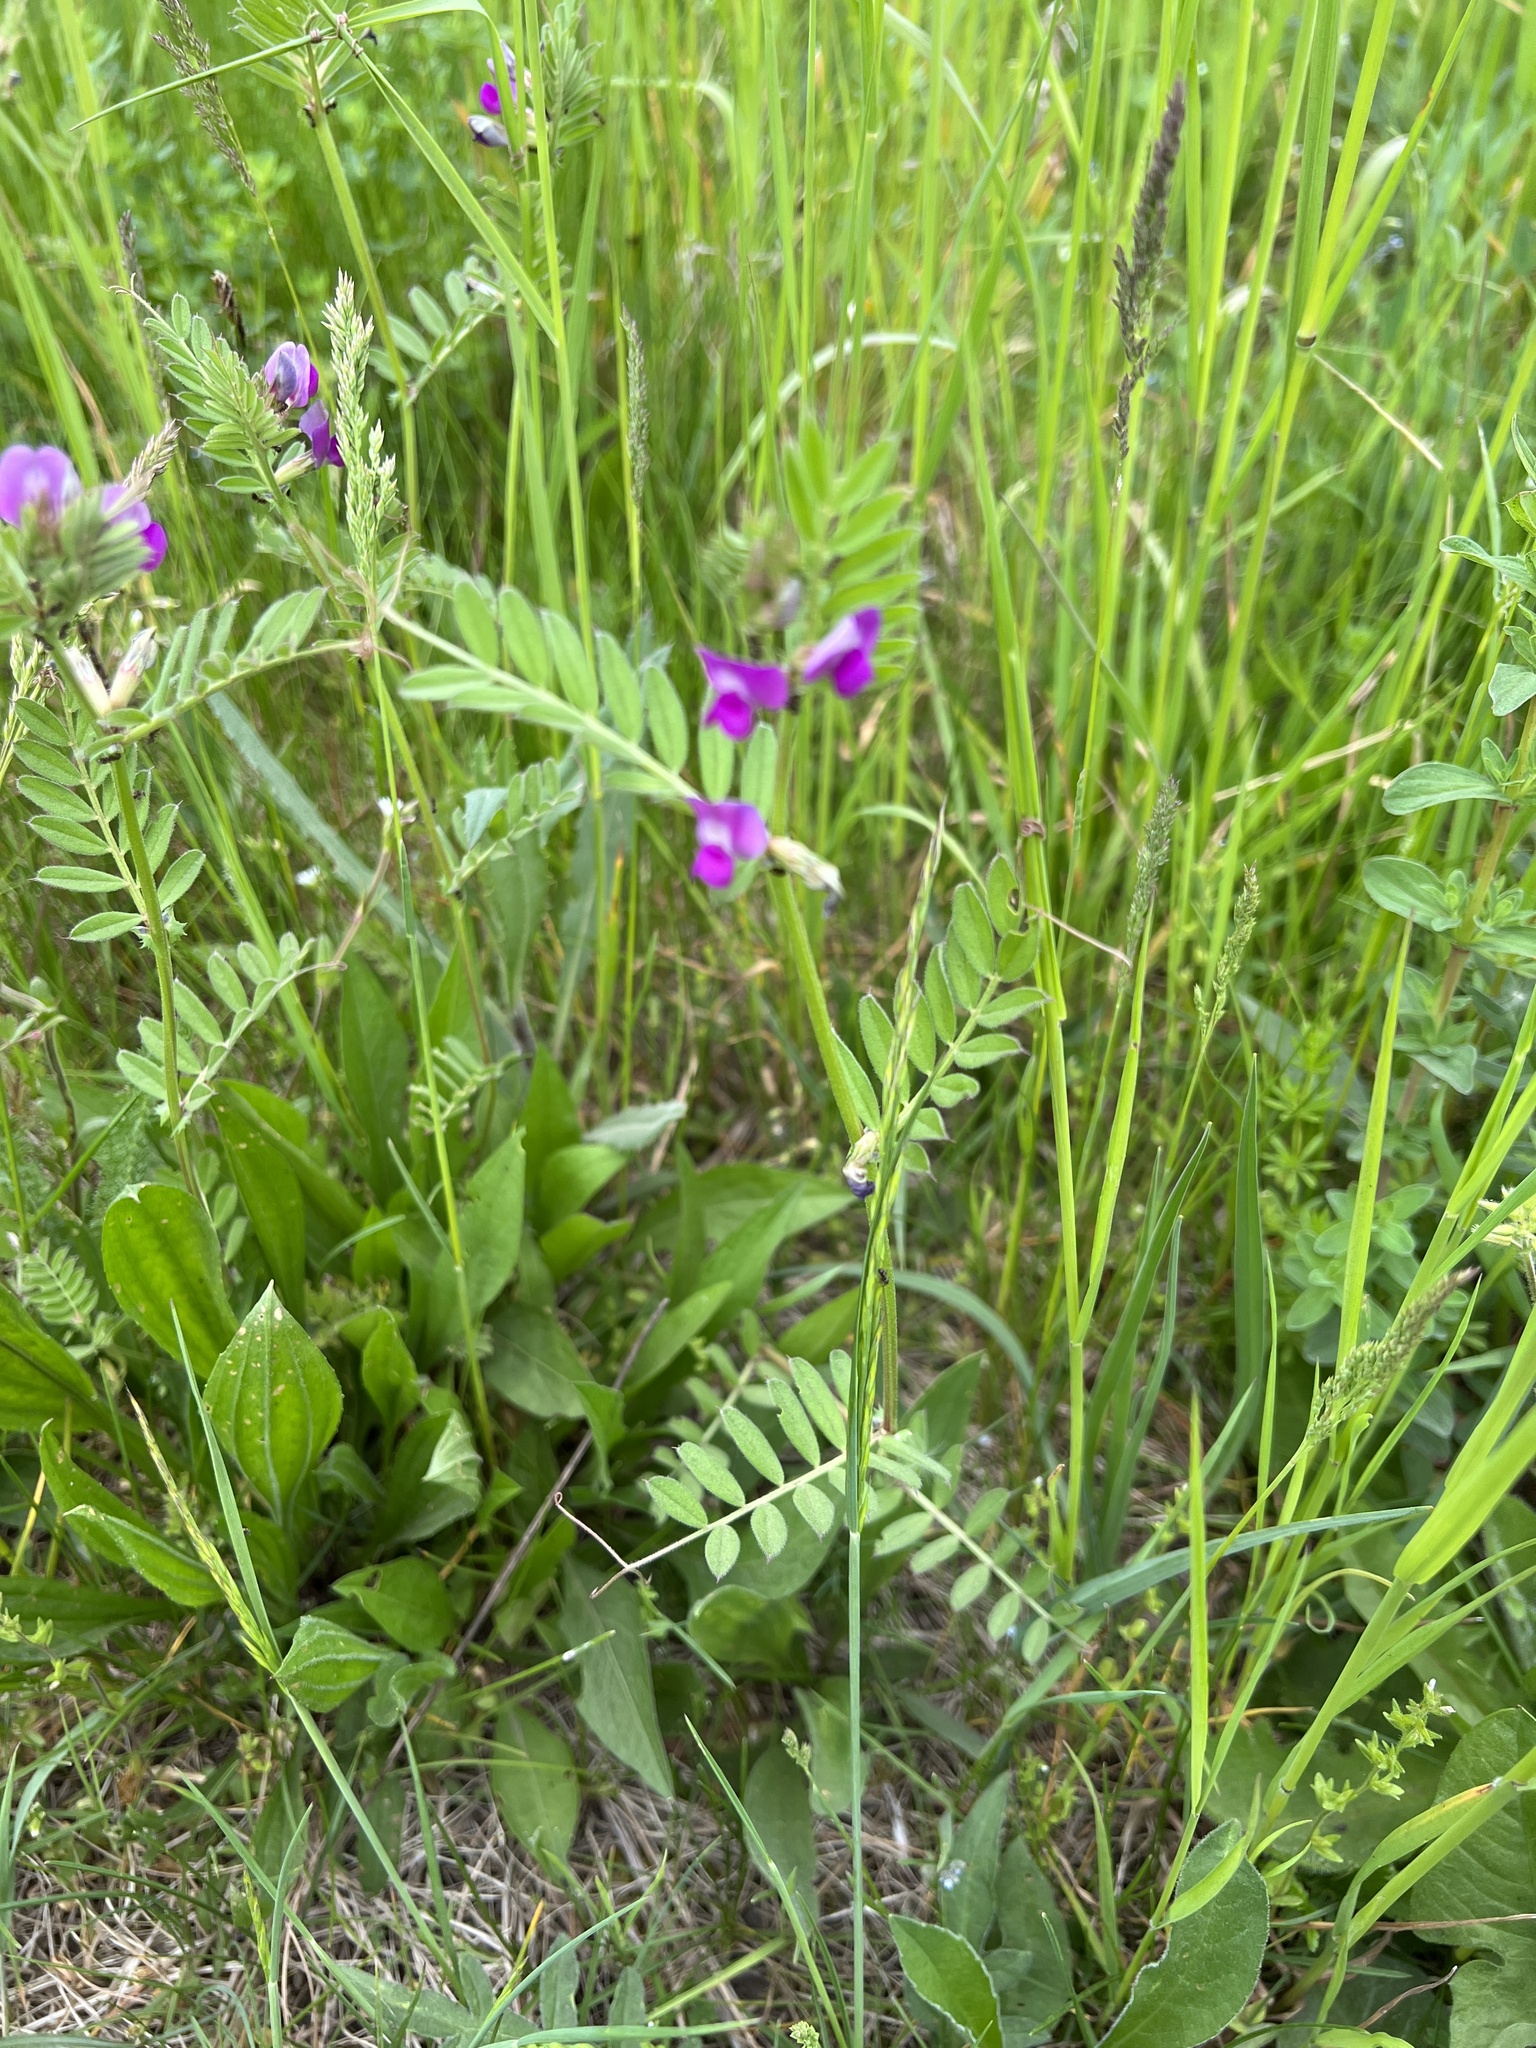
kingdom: Plantae
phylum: Tracheophyta
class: Magnoliopsida
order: Fabales
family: Fabaceae
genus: Vicia
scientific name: Vicia sativa
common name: Garden vetch
